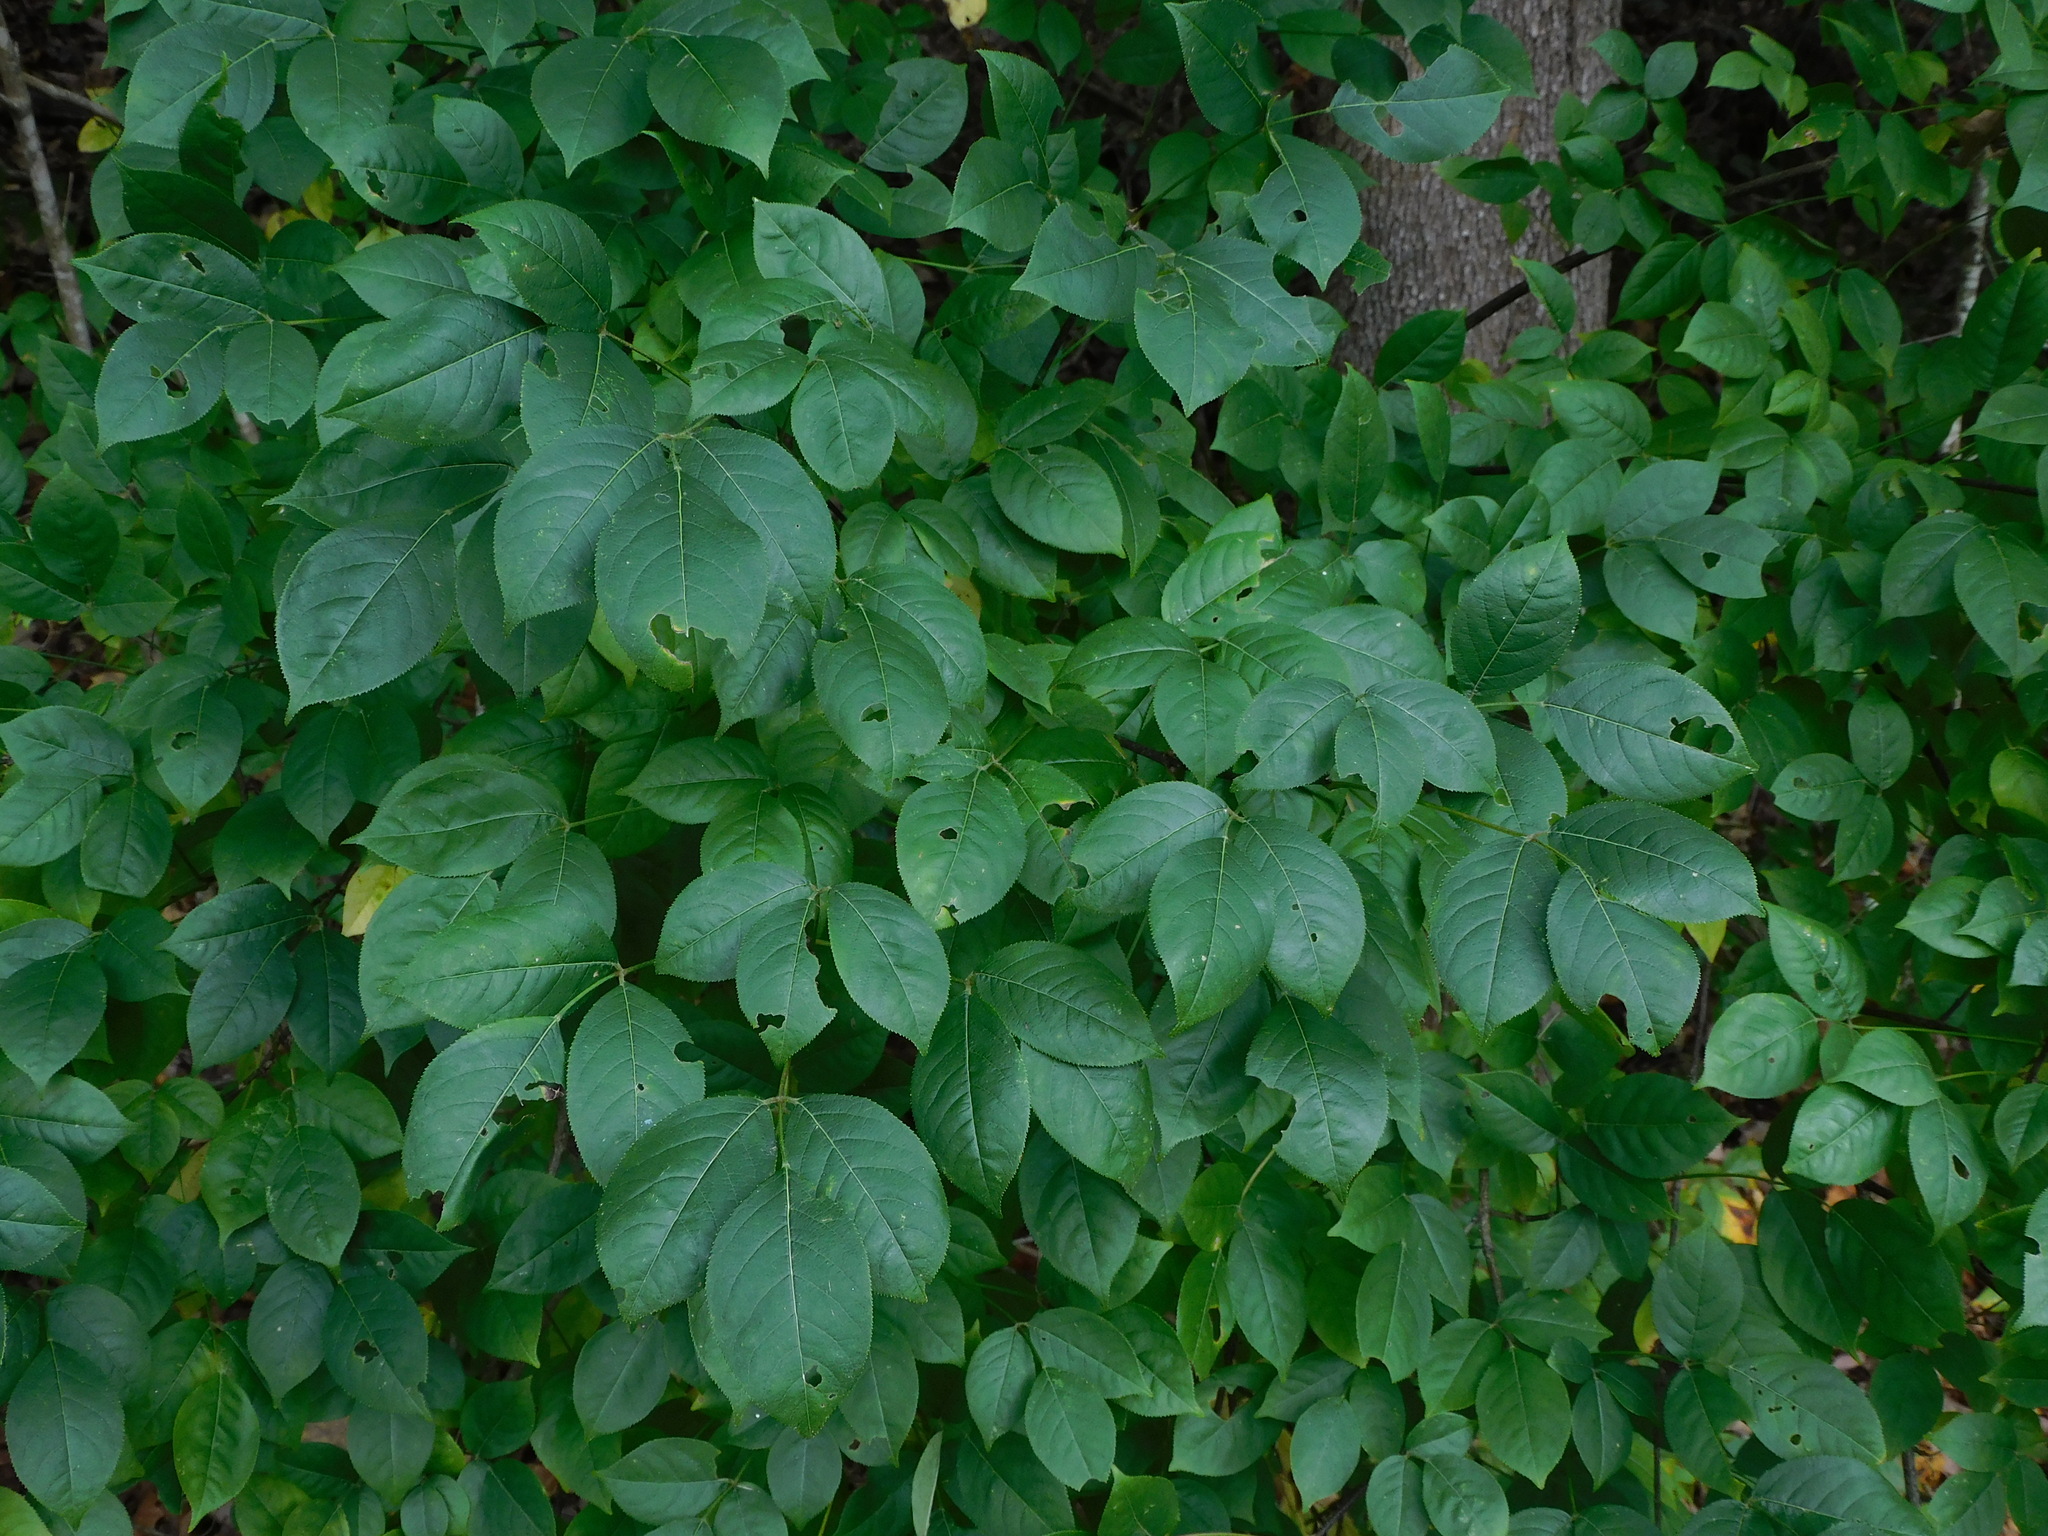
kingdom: Plantae
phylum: Tracheophyta
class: Magnoliopsida
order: Crossosomatales
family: Staphyleaceae
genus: Staphylea
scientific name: Staphylea trifolia
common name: American bladdernut
